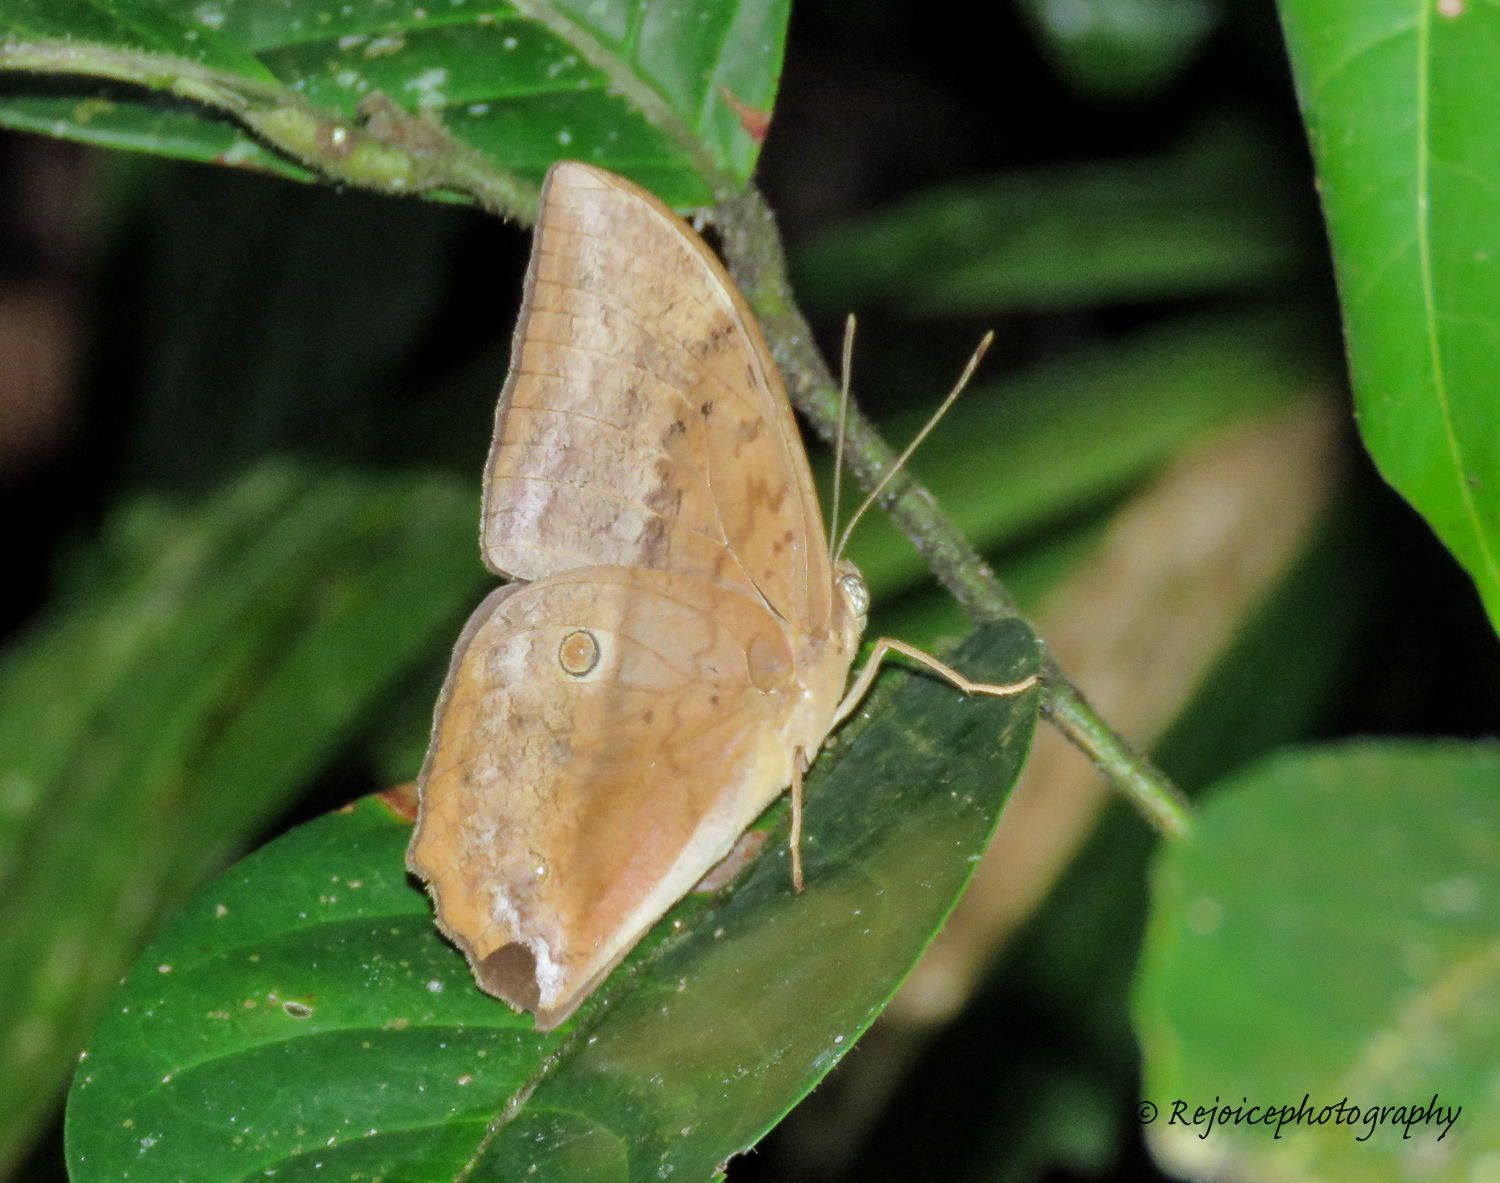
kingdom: Animalia
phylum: Arthropoda
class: Insecta
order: Lepidoptera
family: Nymphalidae
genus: Discophora
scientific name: Discophora sondaica
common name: Common duffer
